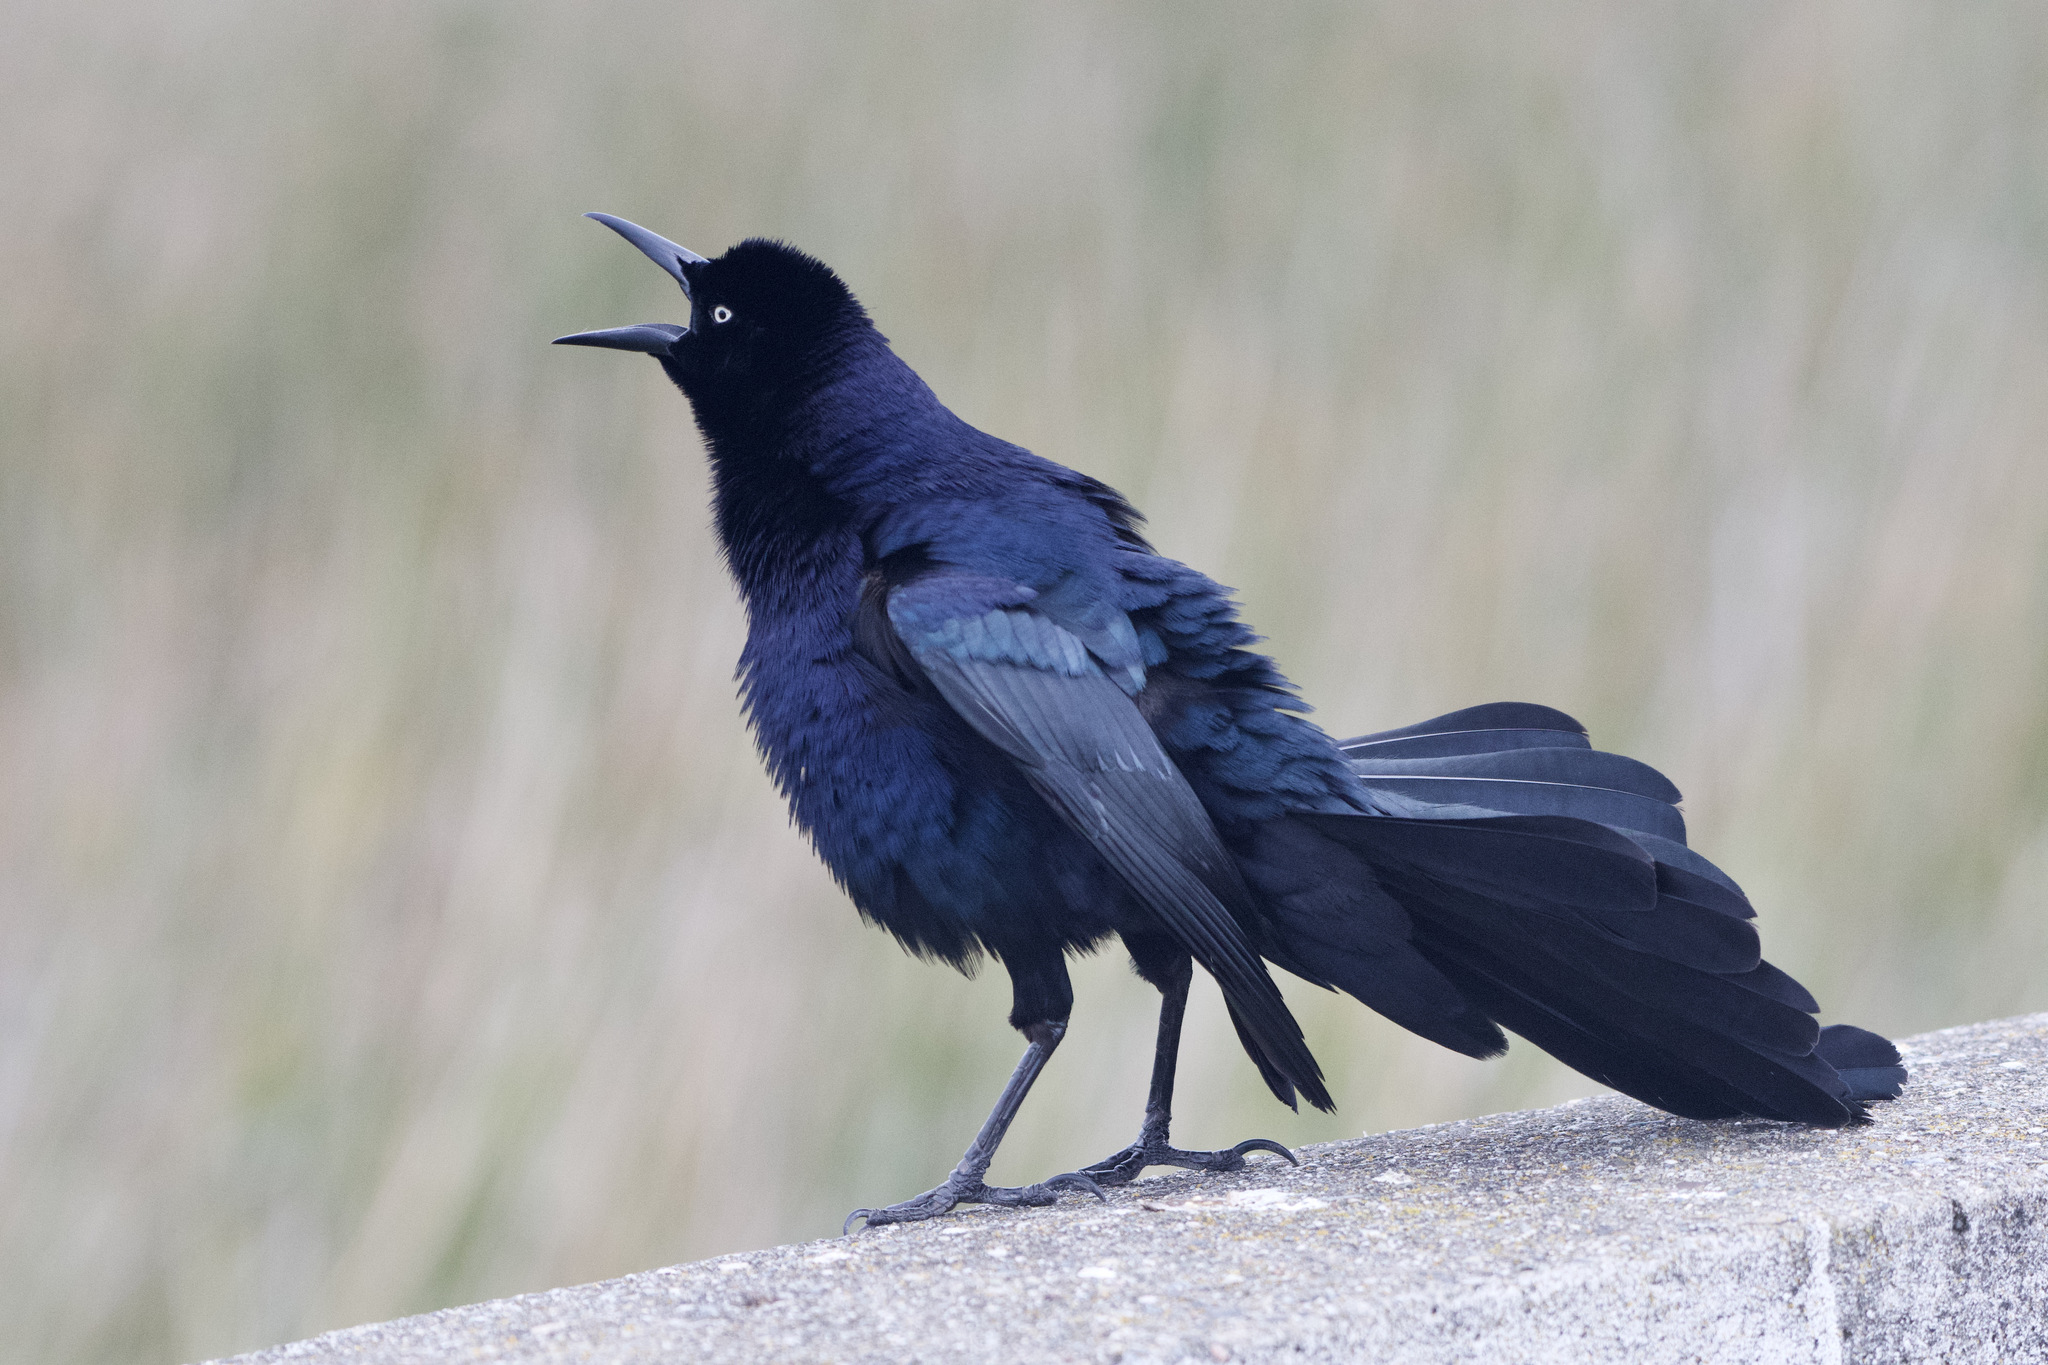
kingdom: Animalia
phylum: Chordata
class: Aves
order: Passeriformes
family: Icteridae
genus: Quiscalus
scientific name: Quiscalus mexicanus
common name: Great-tailed grackle
